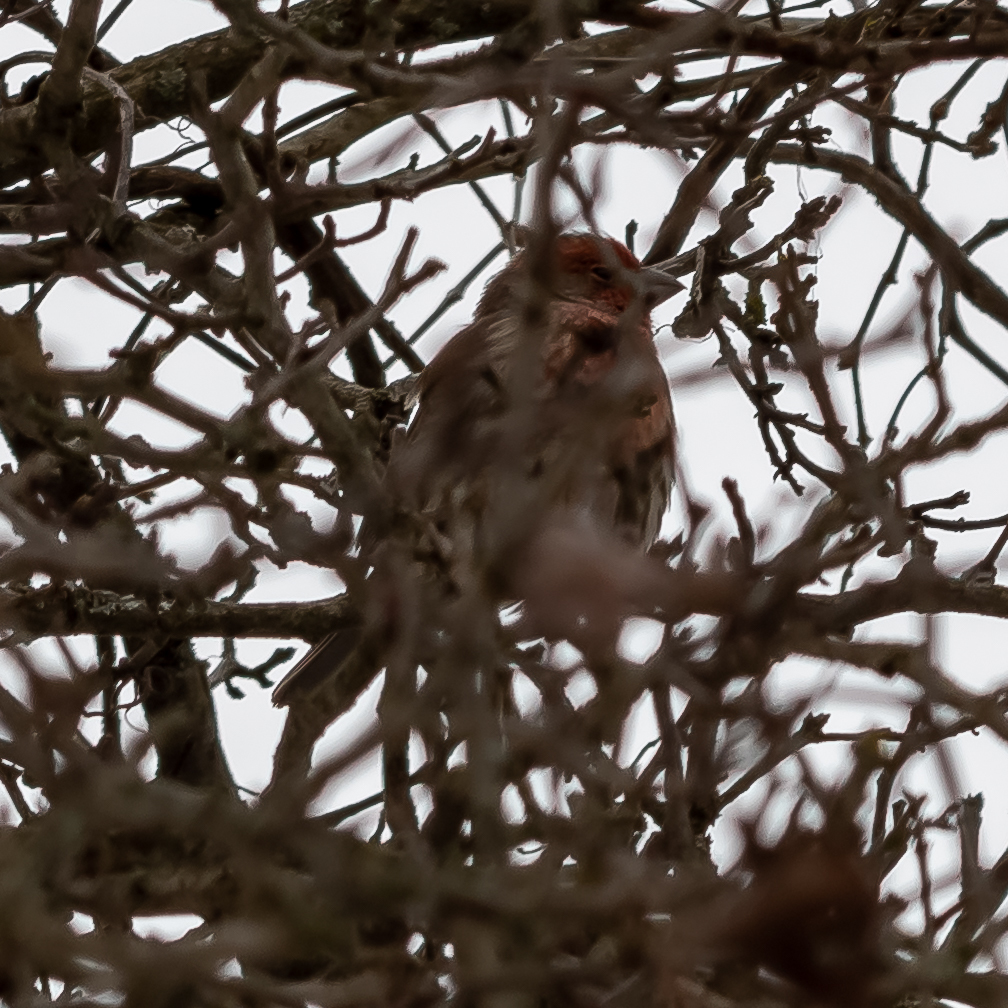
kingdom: Animalia
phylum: Chordata
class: Aves
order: Passeriformes
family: Fringillidae
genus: Haemorhous
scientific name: Haemorhous mexicanus
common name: House finch
